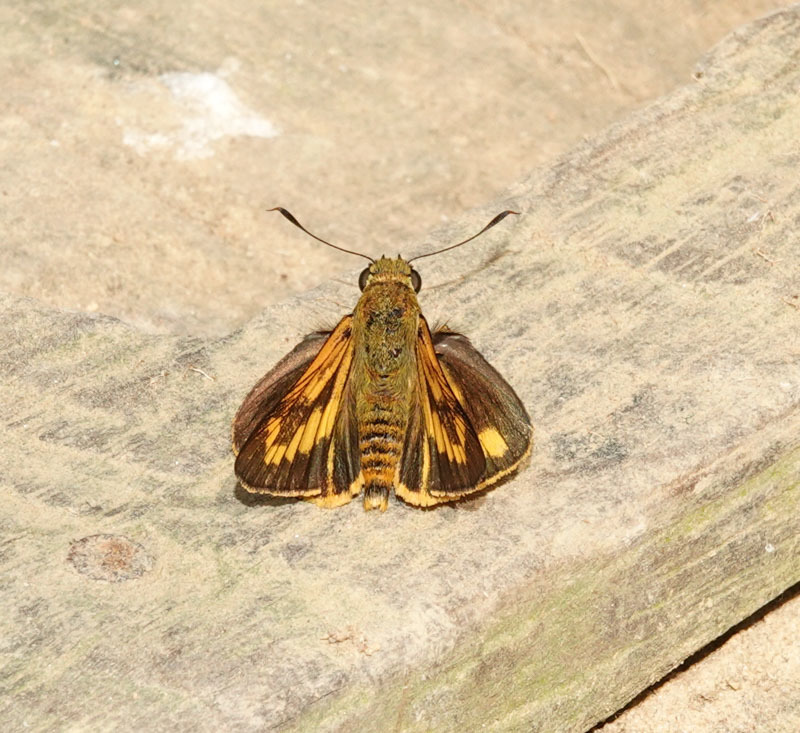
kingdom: Animalia
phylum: Arthropoda
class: Insecta
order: Lepidoptera
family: Hesperiidae
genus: Cephrenes
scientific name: Cephrenes
